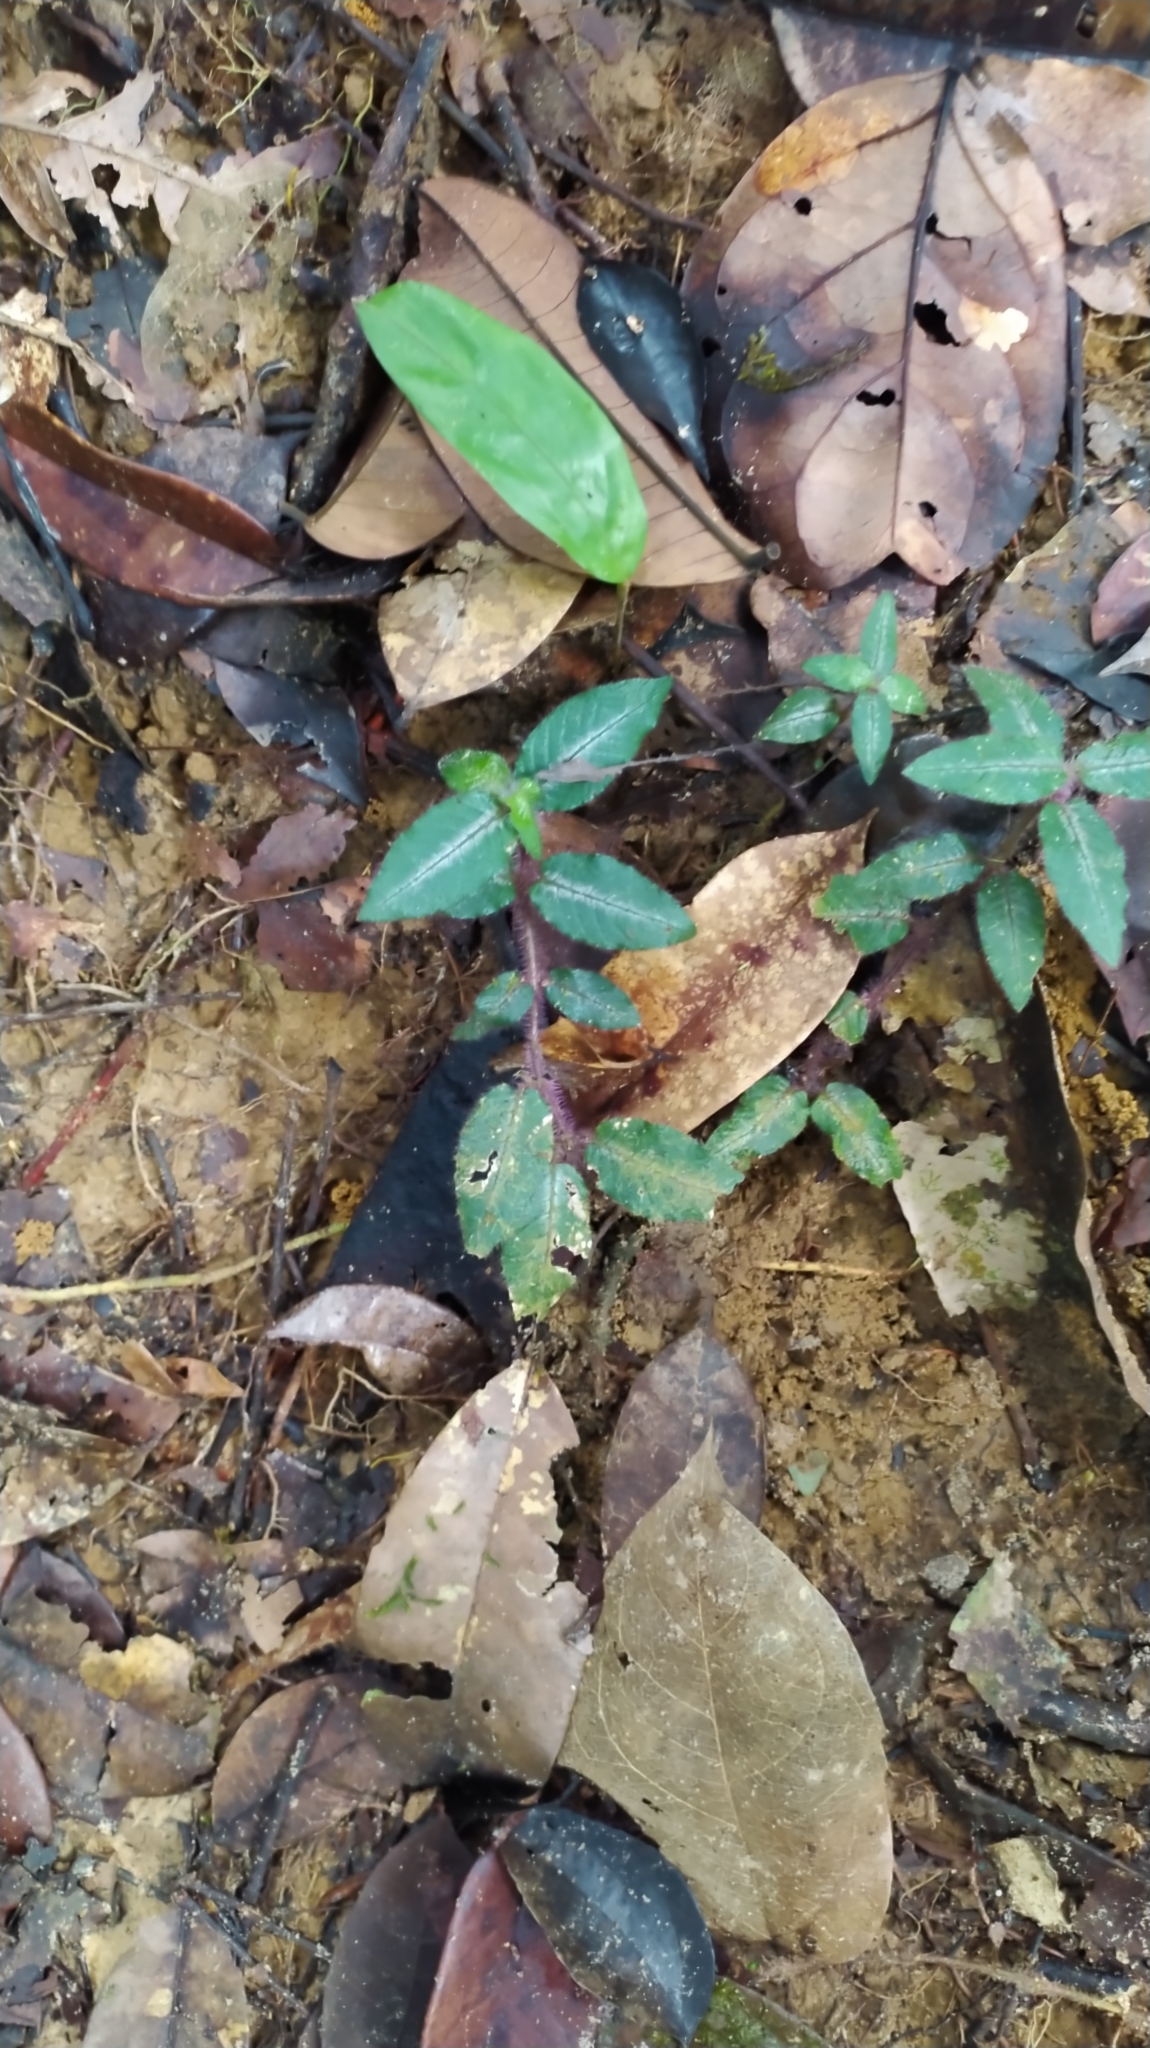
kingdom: Plantae
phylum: Tracheophyta
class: Magnoliopsida
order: Gentianales
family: Rubiaceae
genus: Palicourea
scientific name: Palicourea debilis
